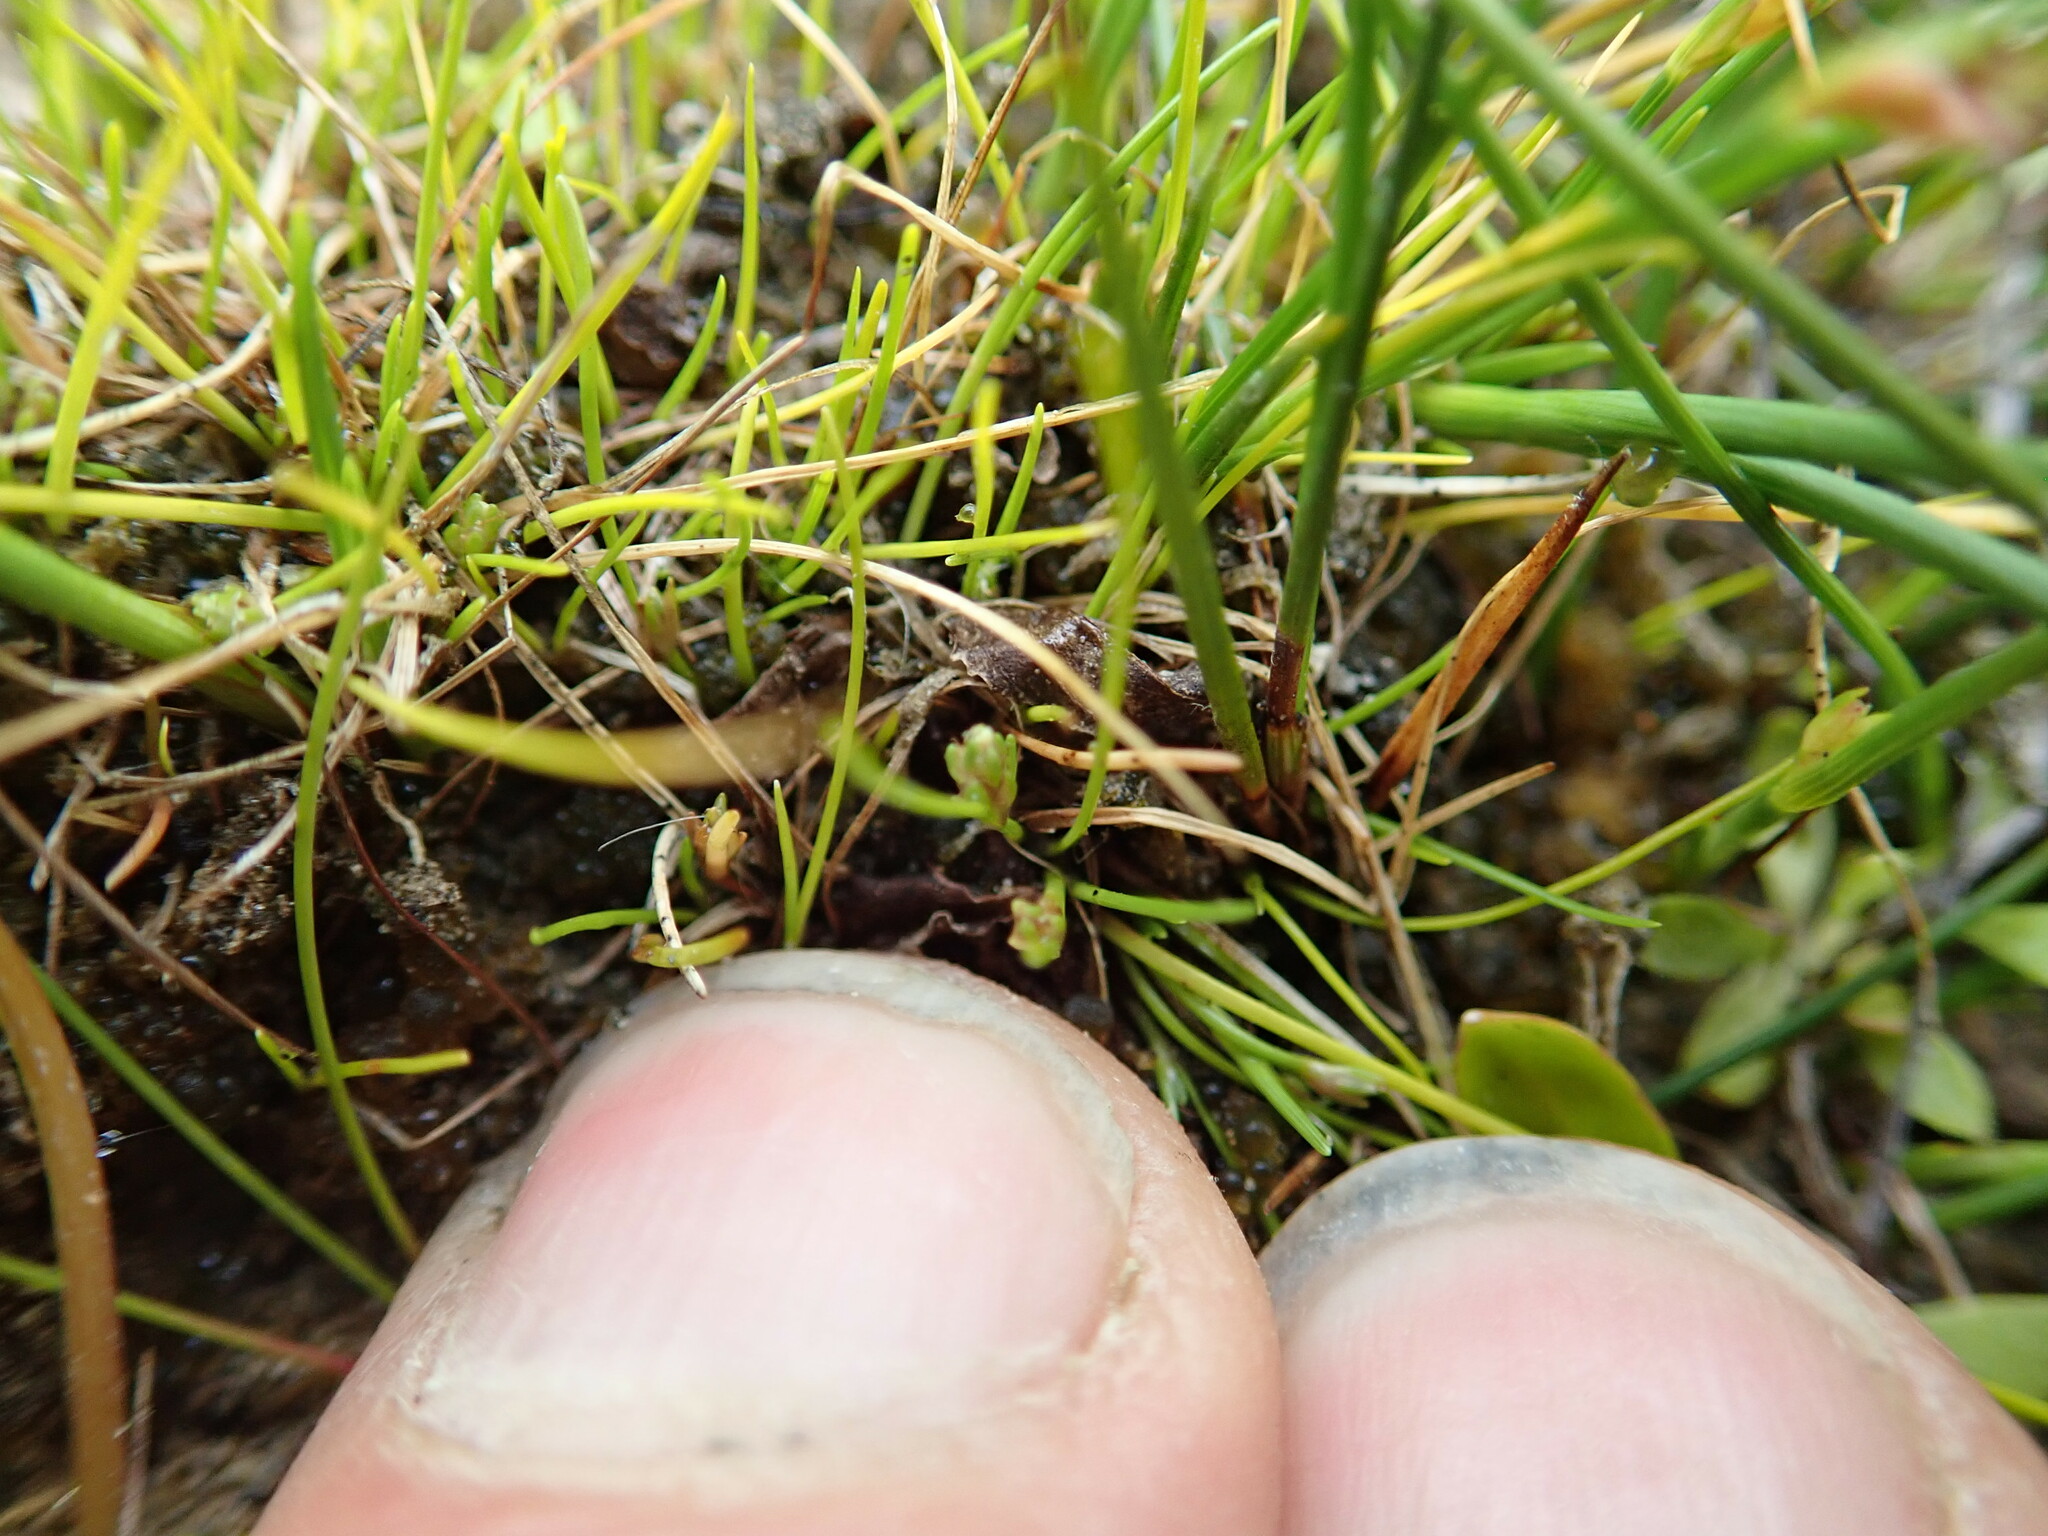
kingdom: Plantae
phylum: Tracheophyta
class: Liliopsida
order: Poales
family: Cyperaceae
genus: Isolepis
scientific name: Isolepis basilaris
